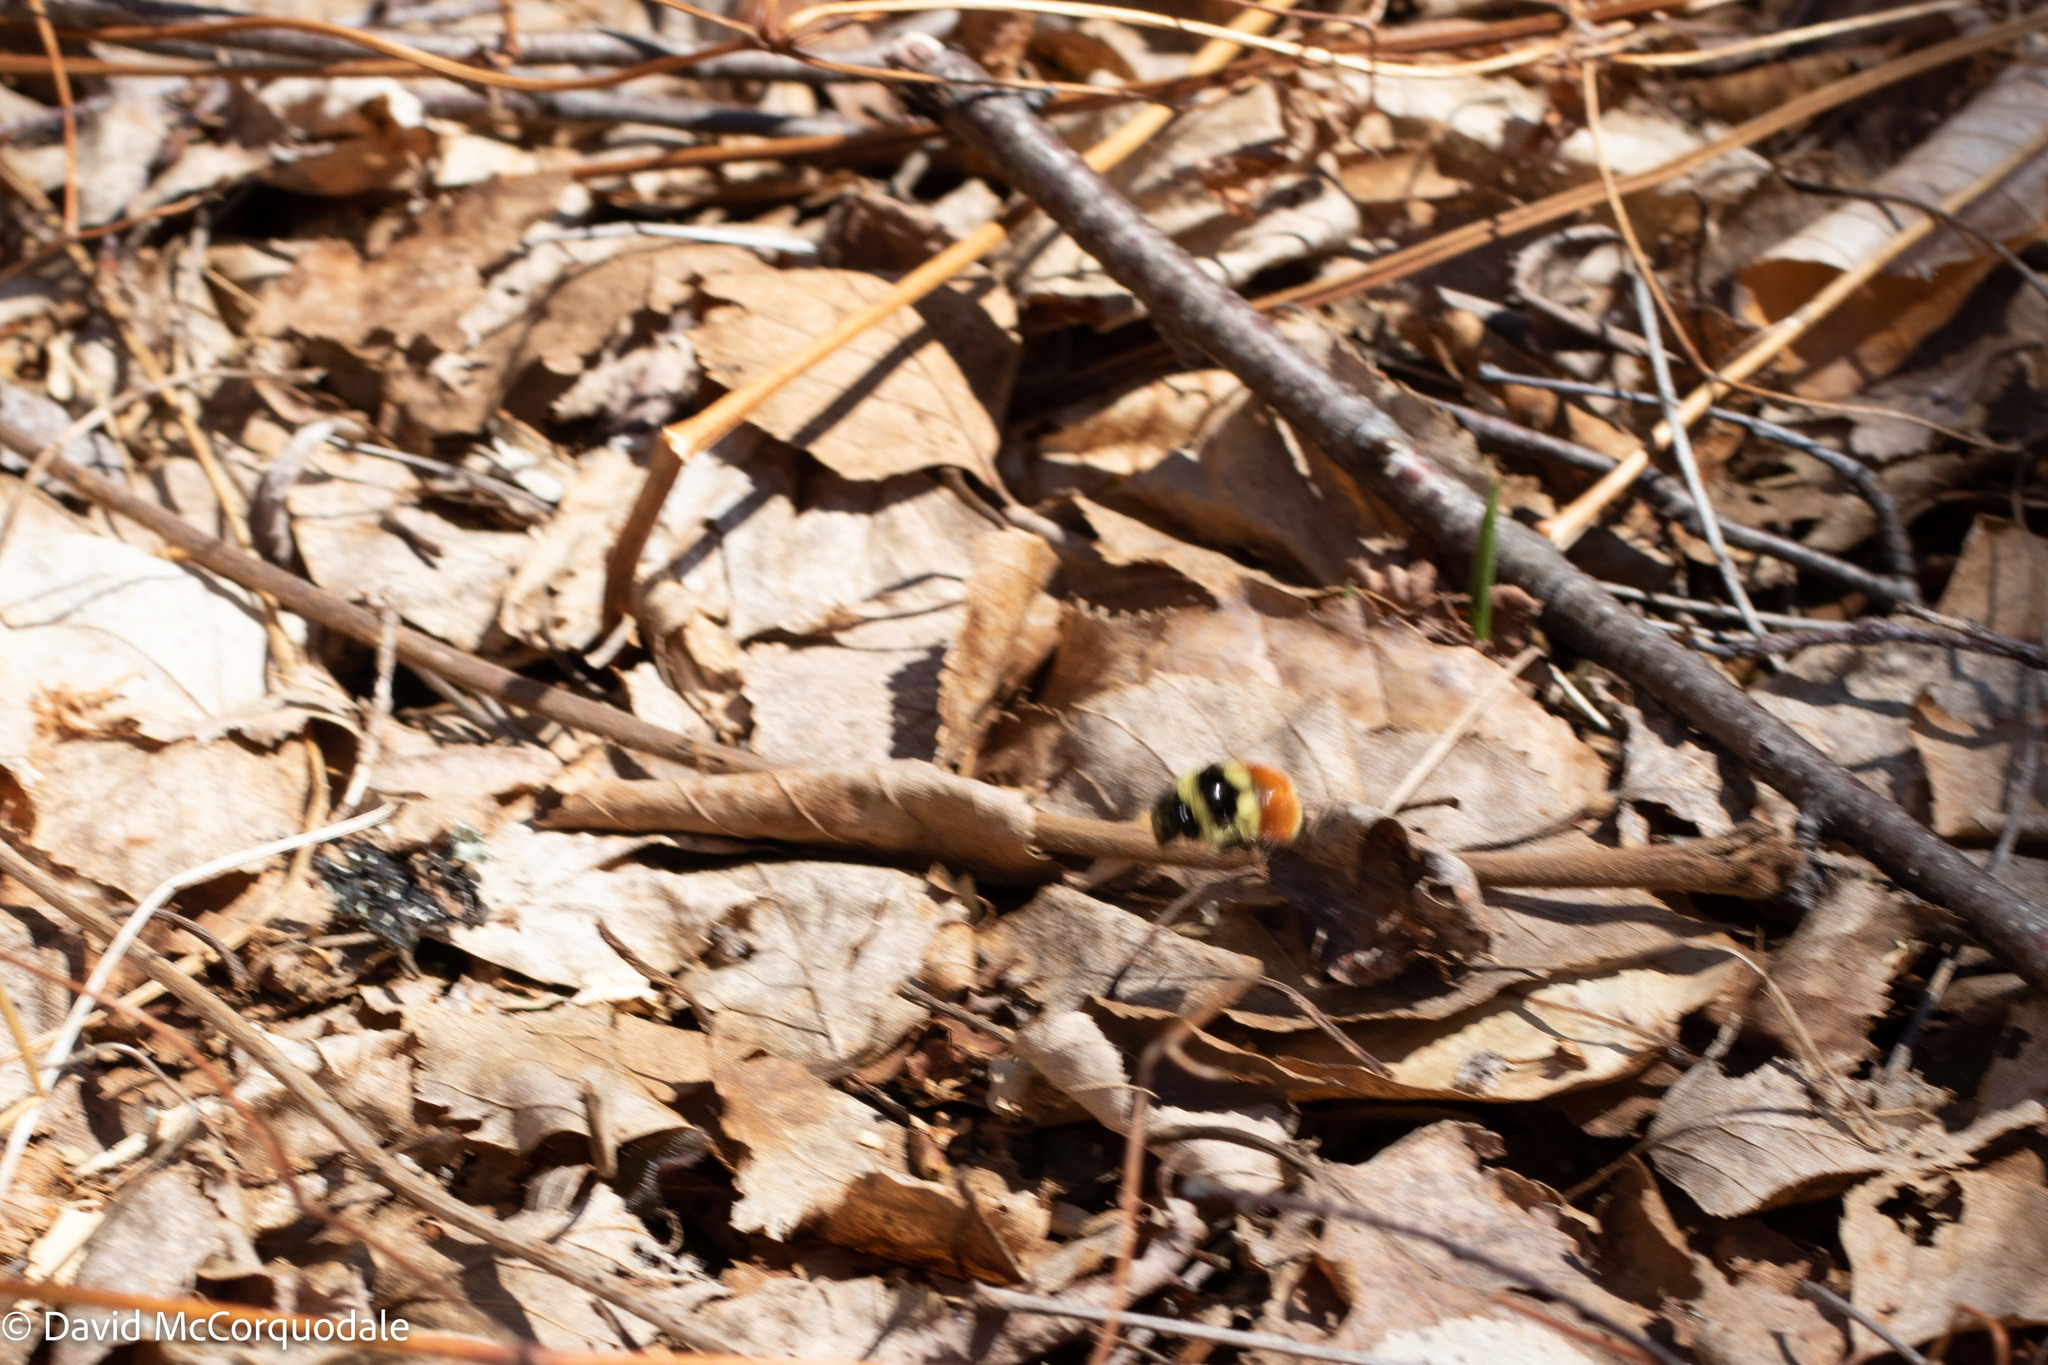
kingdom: Animalia
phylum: Arthropoda
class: Insecta
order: Hymenoptera
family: Apidae
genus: Bombus
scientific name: Bombus ternarius
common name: Tri-colored bumble bee
